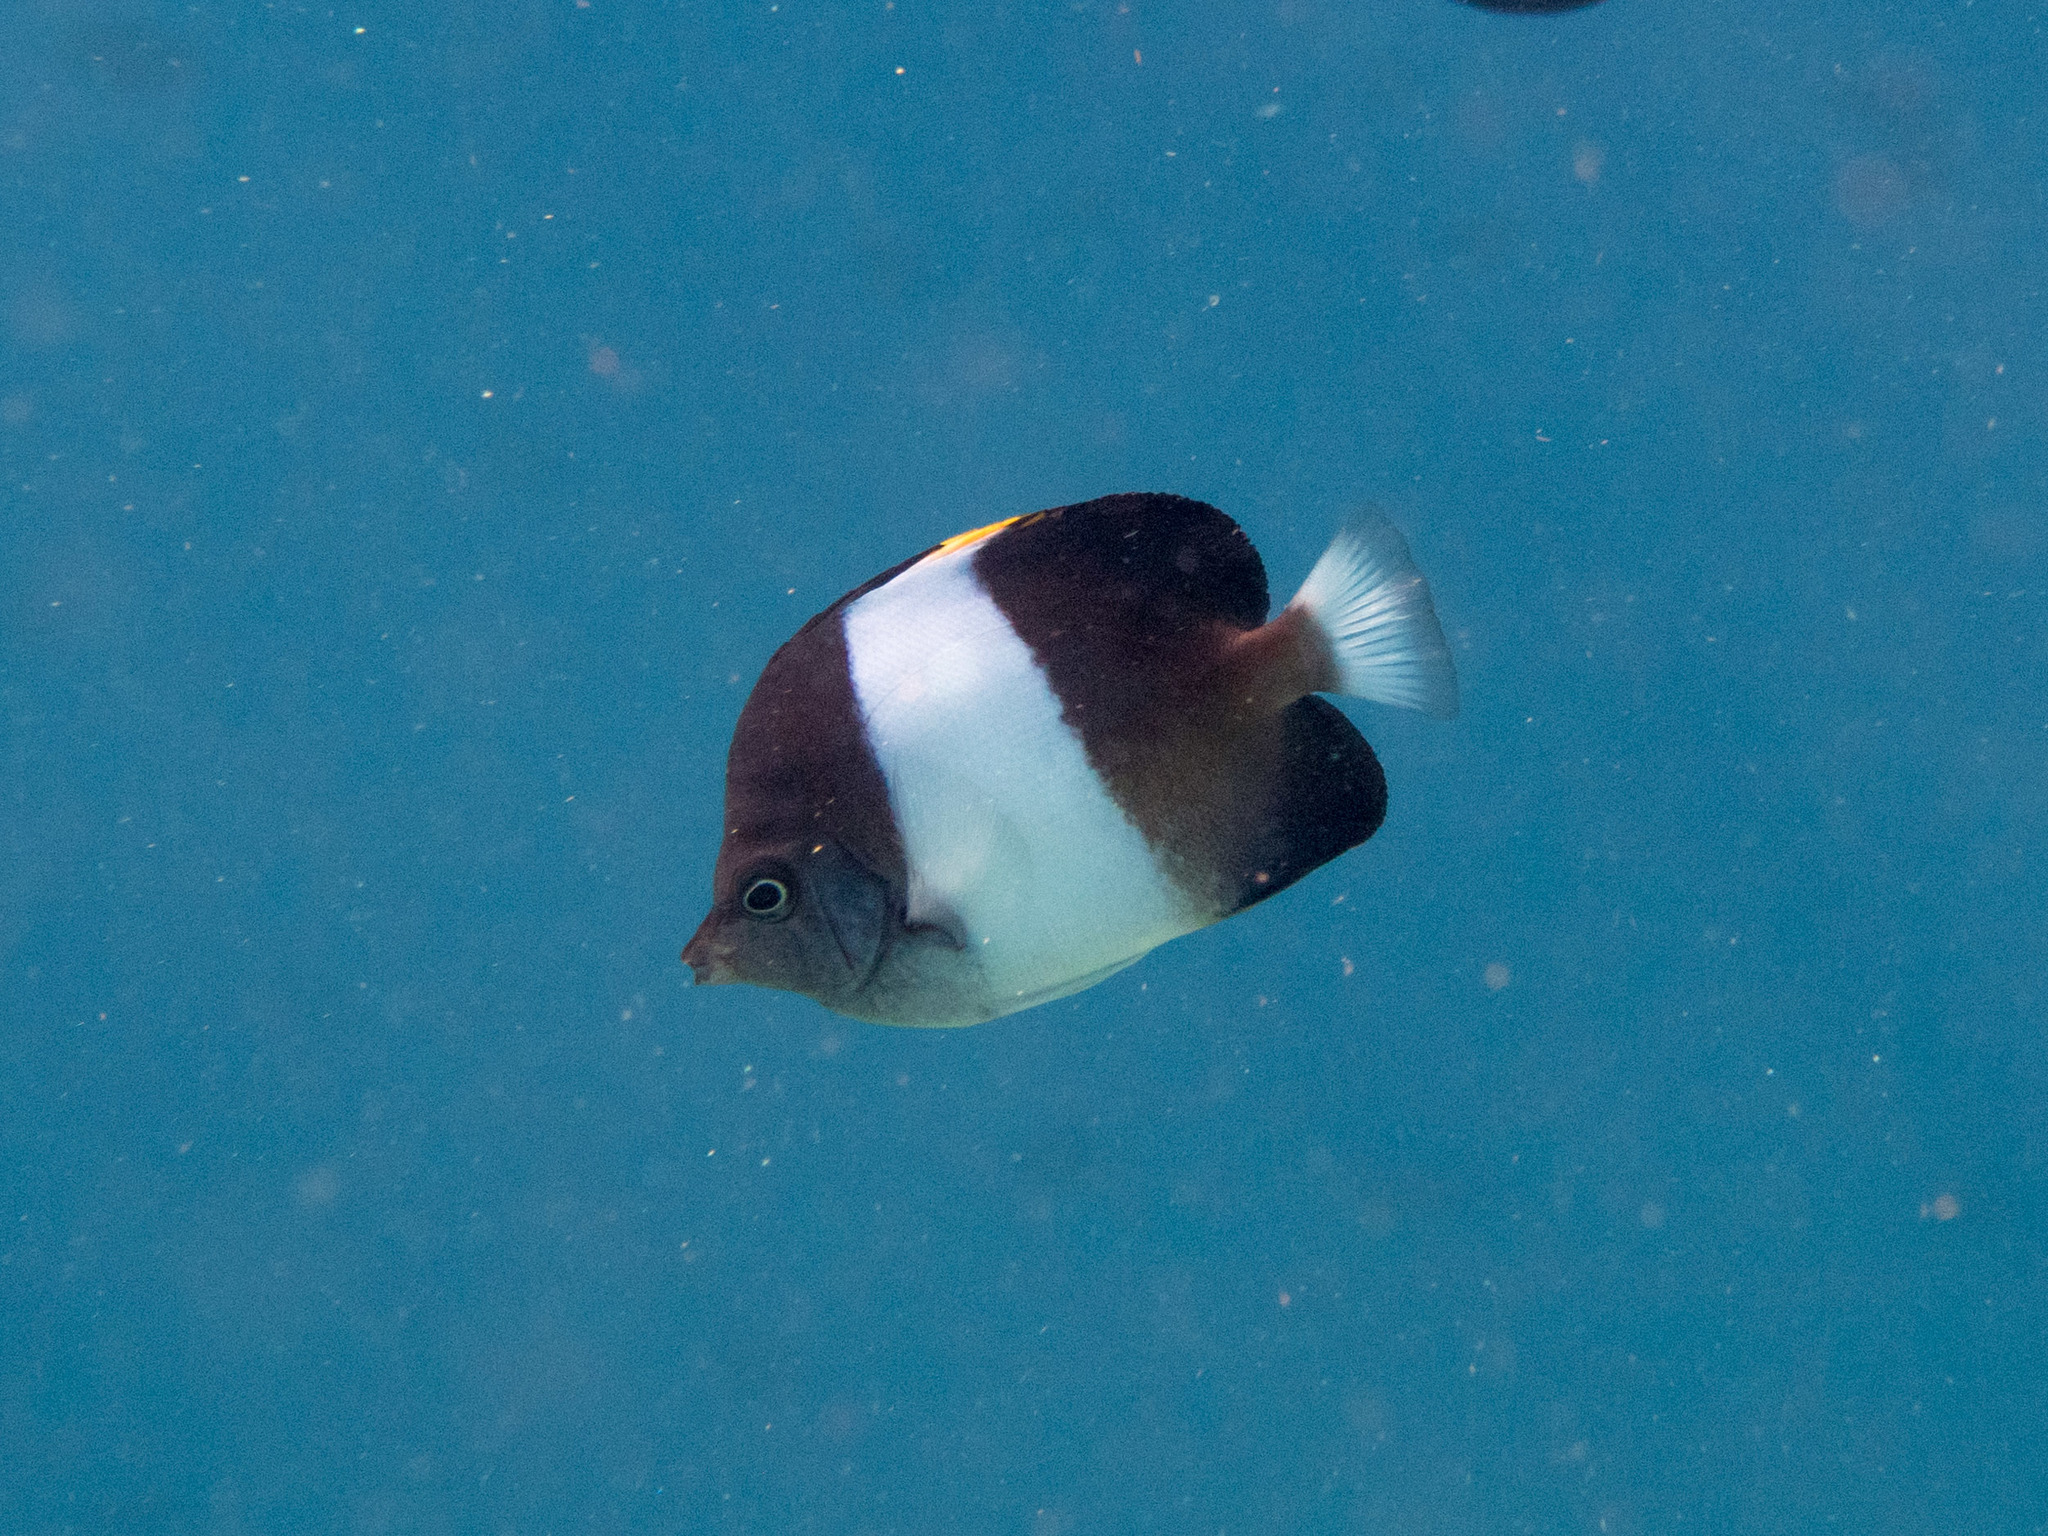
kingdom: Animalia
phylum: Chordata
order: Perciformes
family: Chaetodontidae
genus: Hemitaurichthys
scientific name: Hemitaurichthys zoster
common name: Brown-and-white butterflyfish
